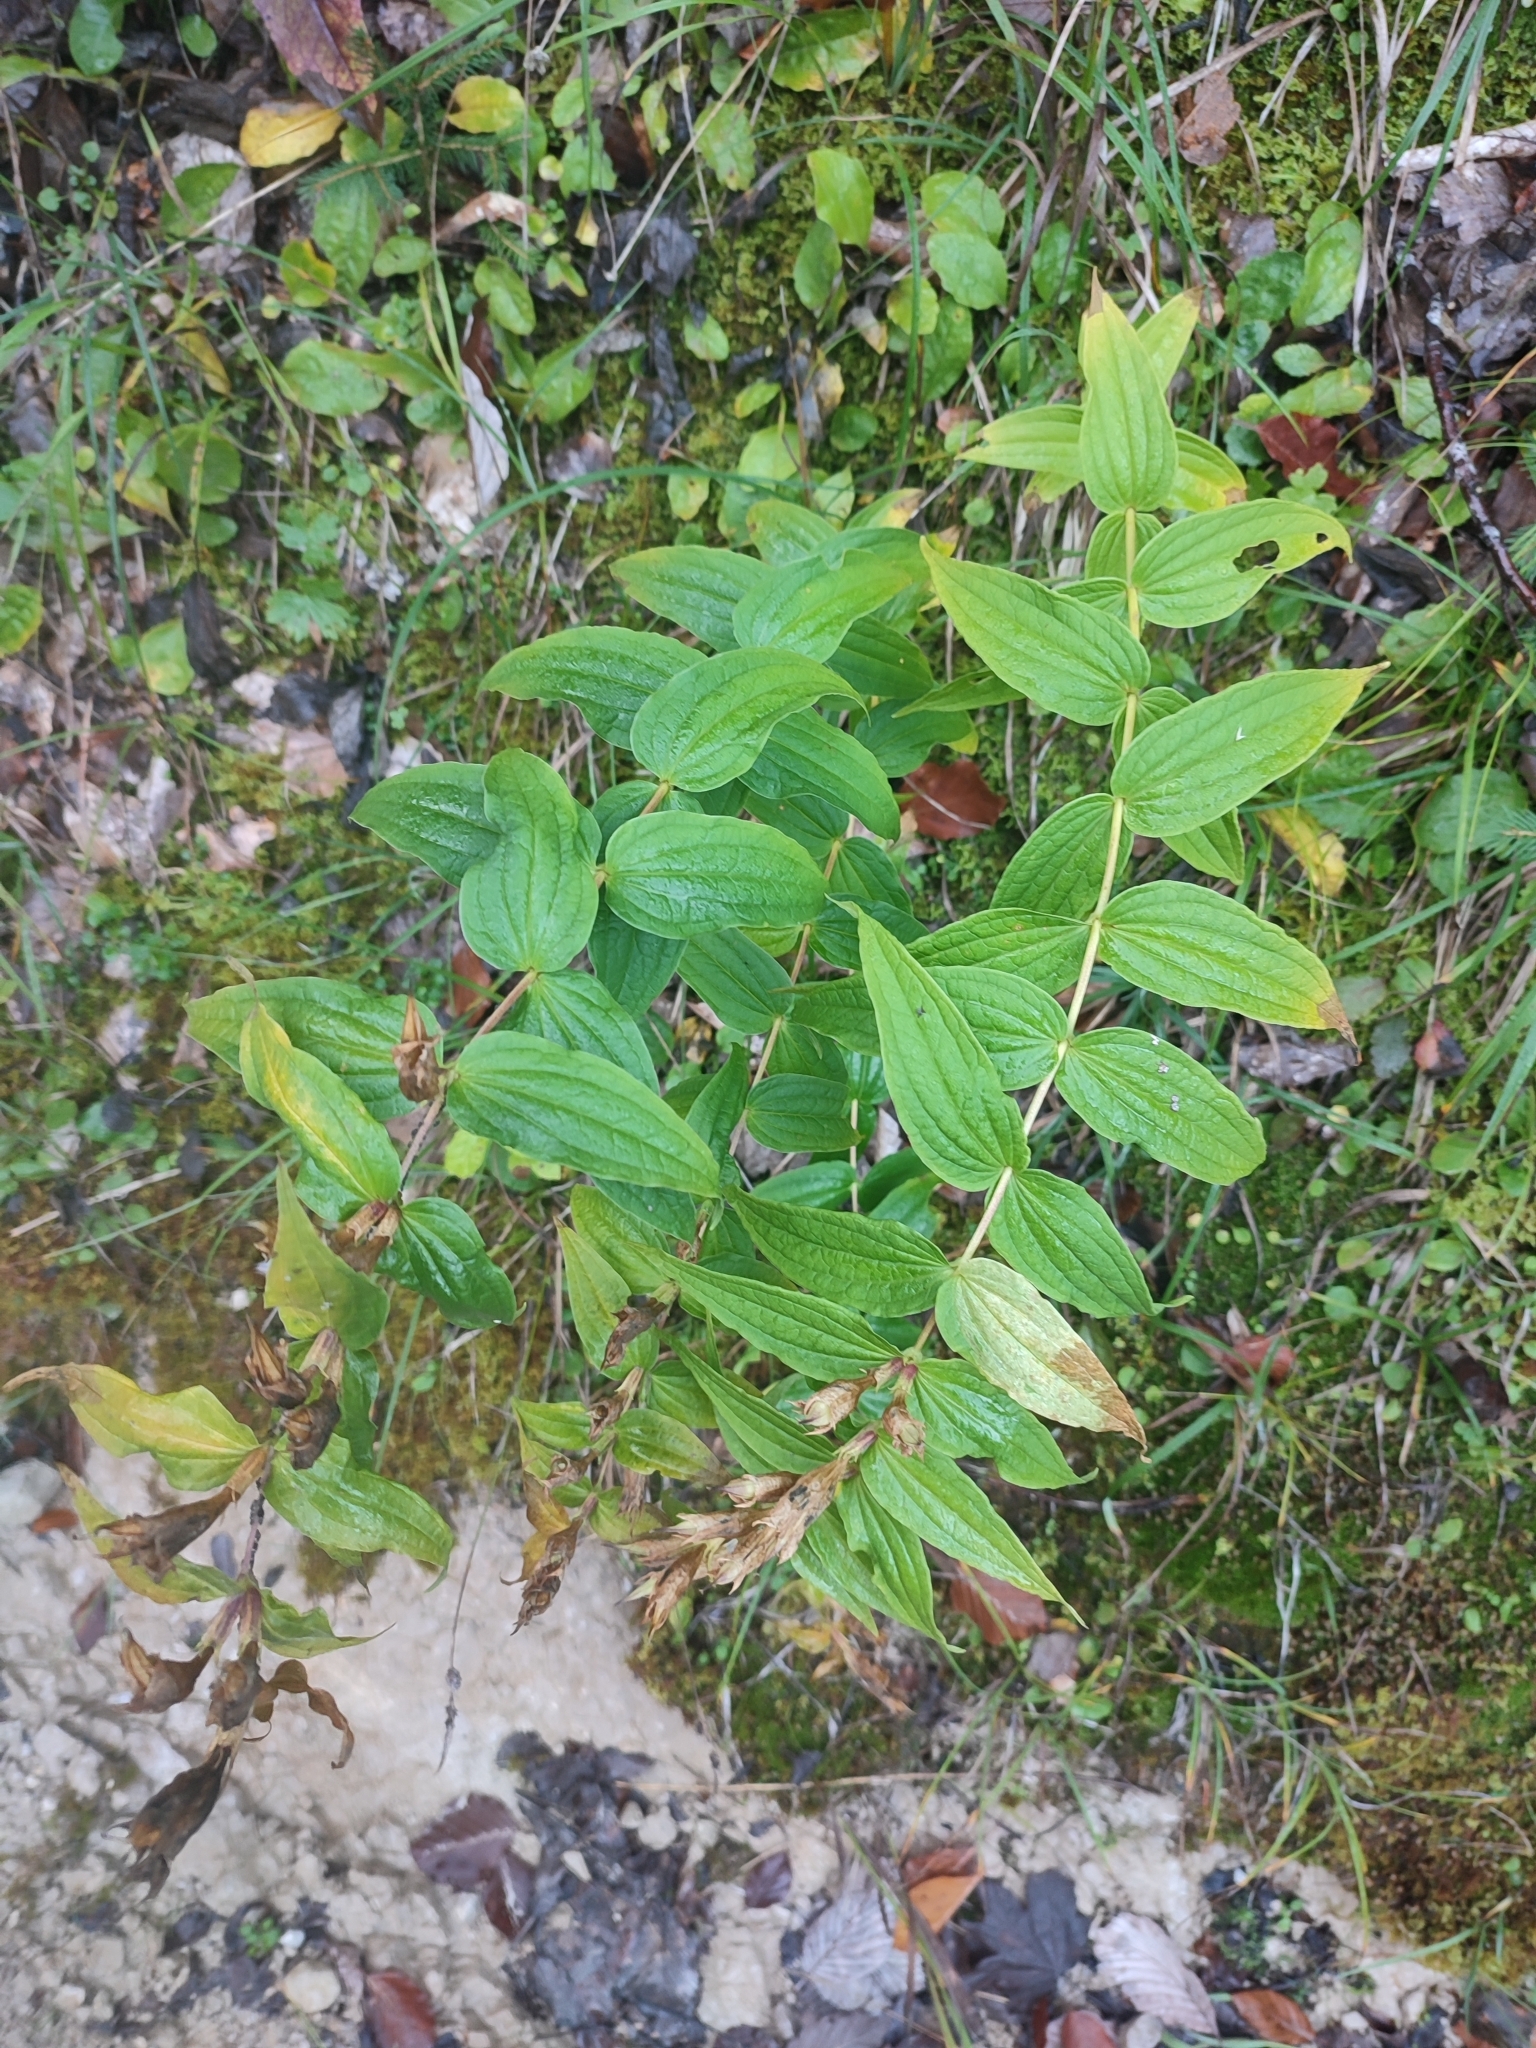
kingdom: Plantae
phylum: Tracheophyta
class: Magnoliopsida
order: Gentianales
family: Gentianaceae
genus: Gentiana
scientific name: Gentiana asclepiadea
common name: Willow gentian
